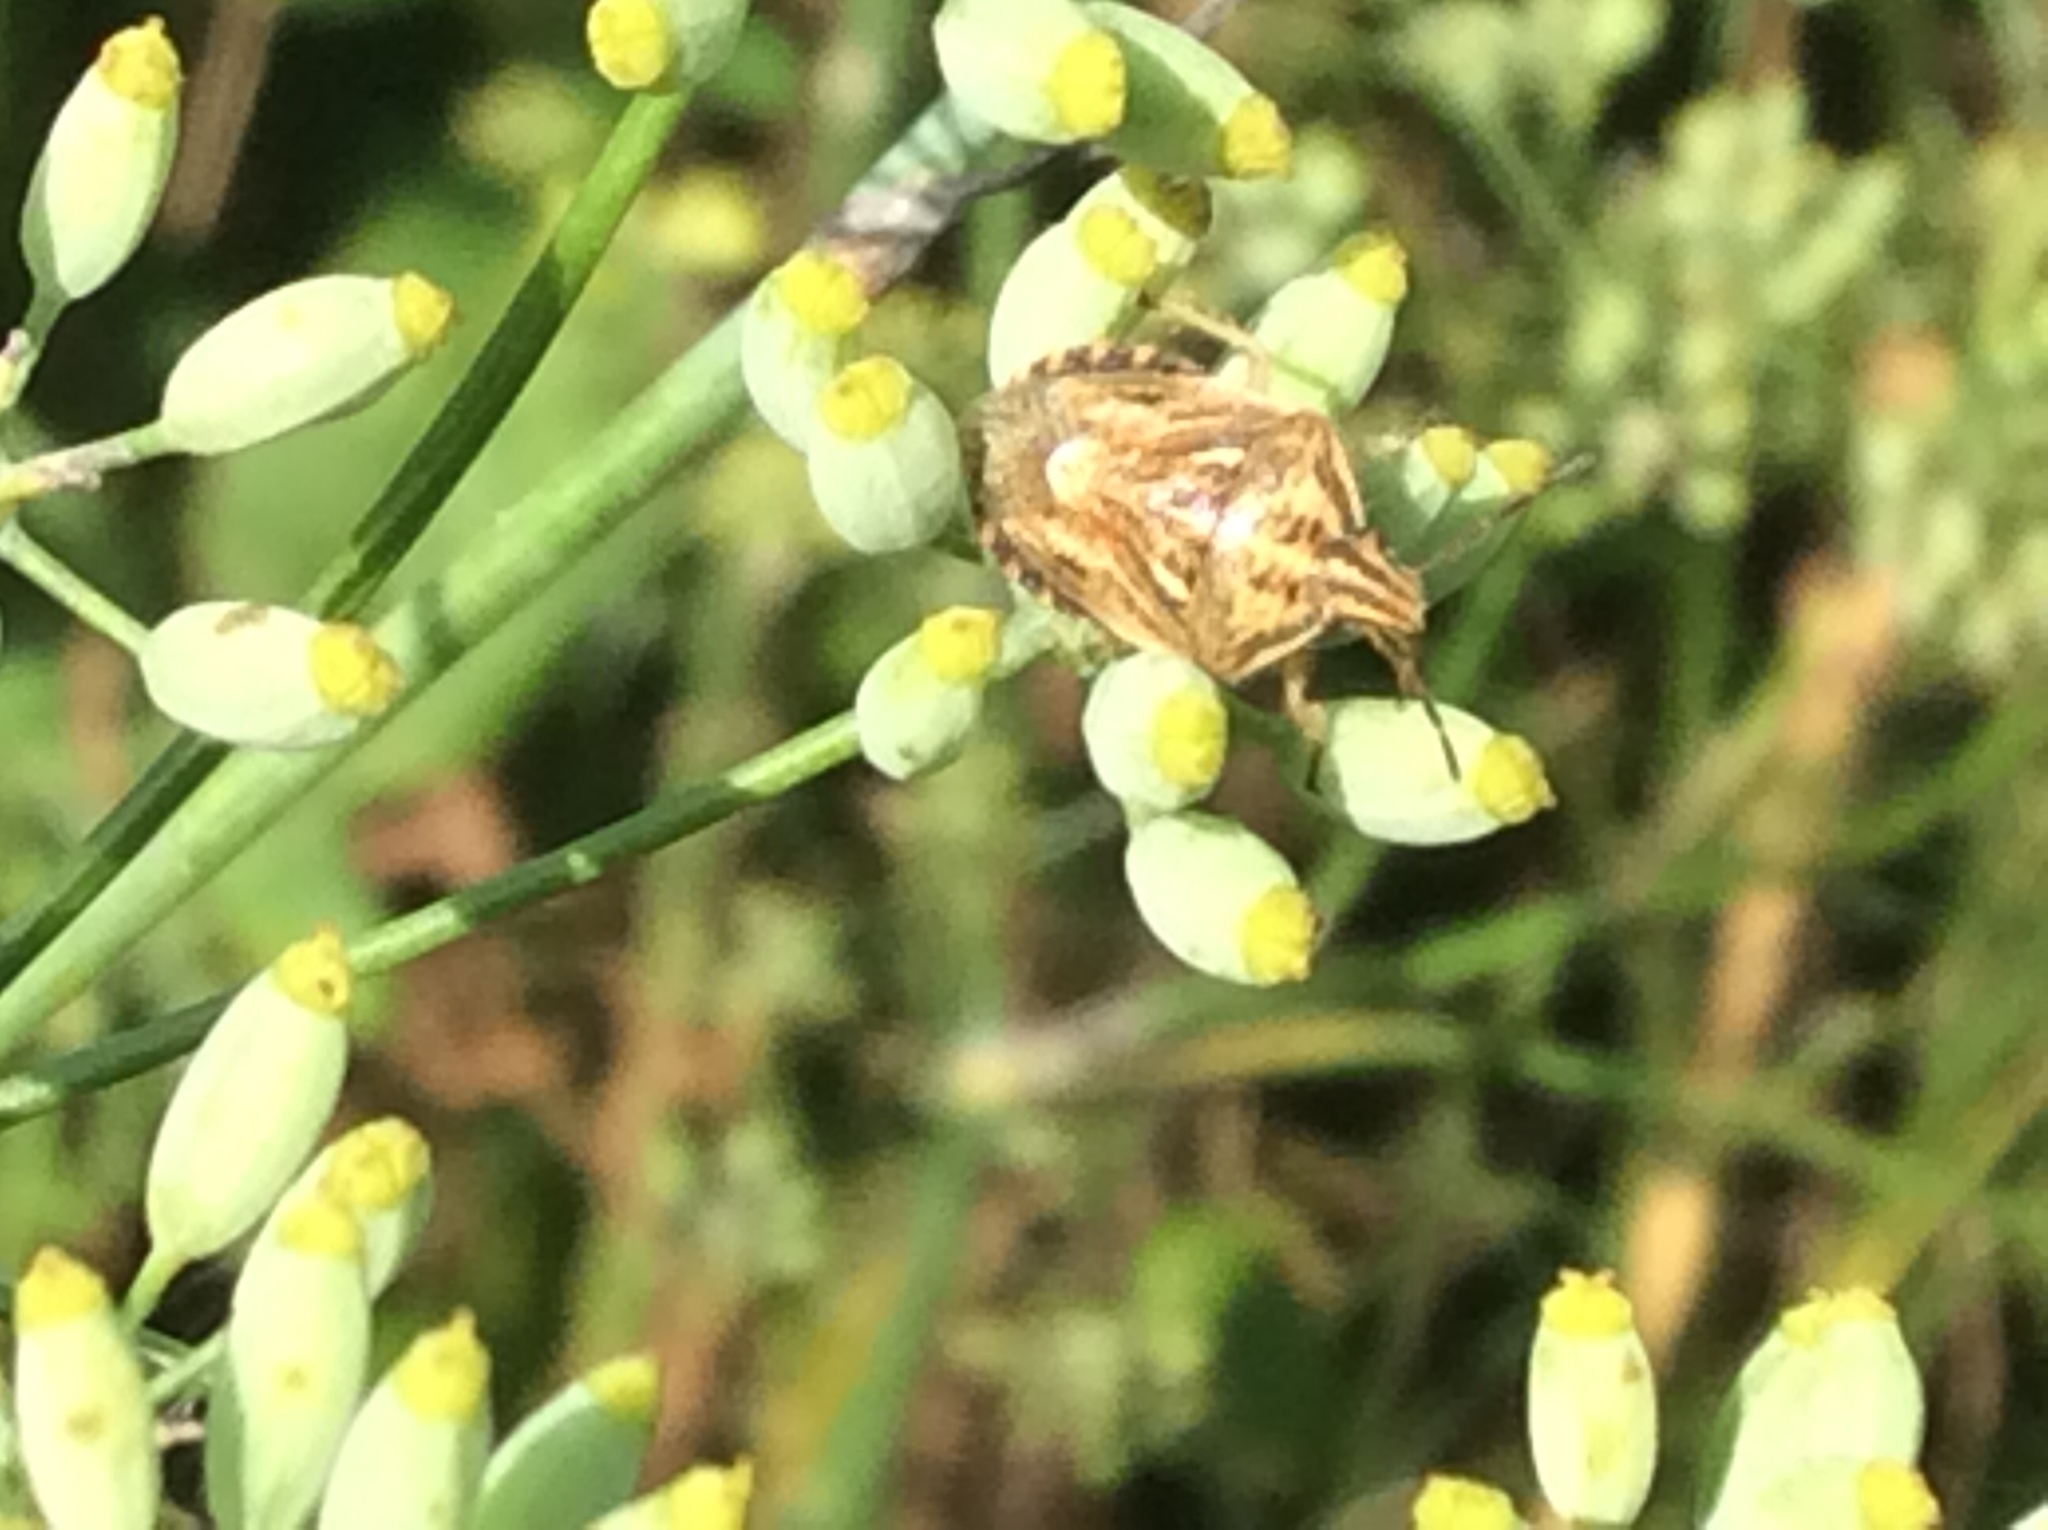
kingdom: Animalia
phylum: Arthropoda
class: Insecta
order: Hemiptera
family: Pentatomidae
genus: Trichopepla
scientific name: Trichopepla semivittata
